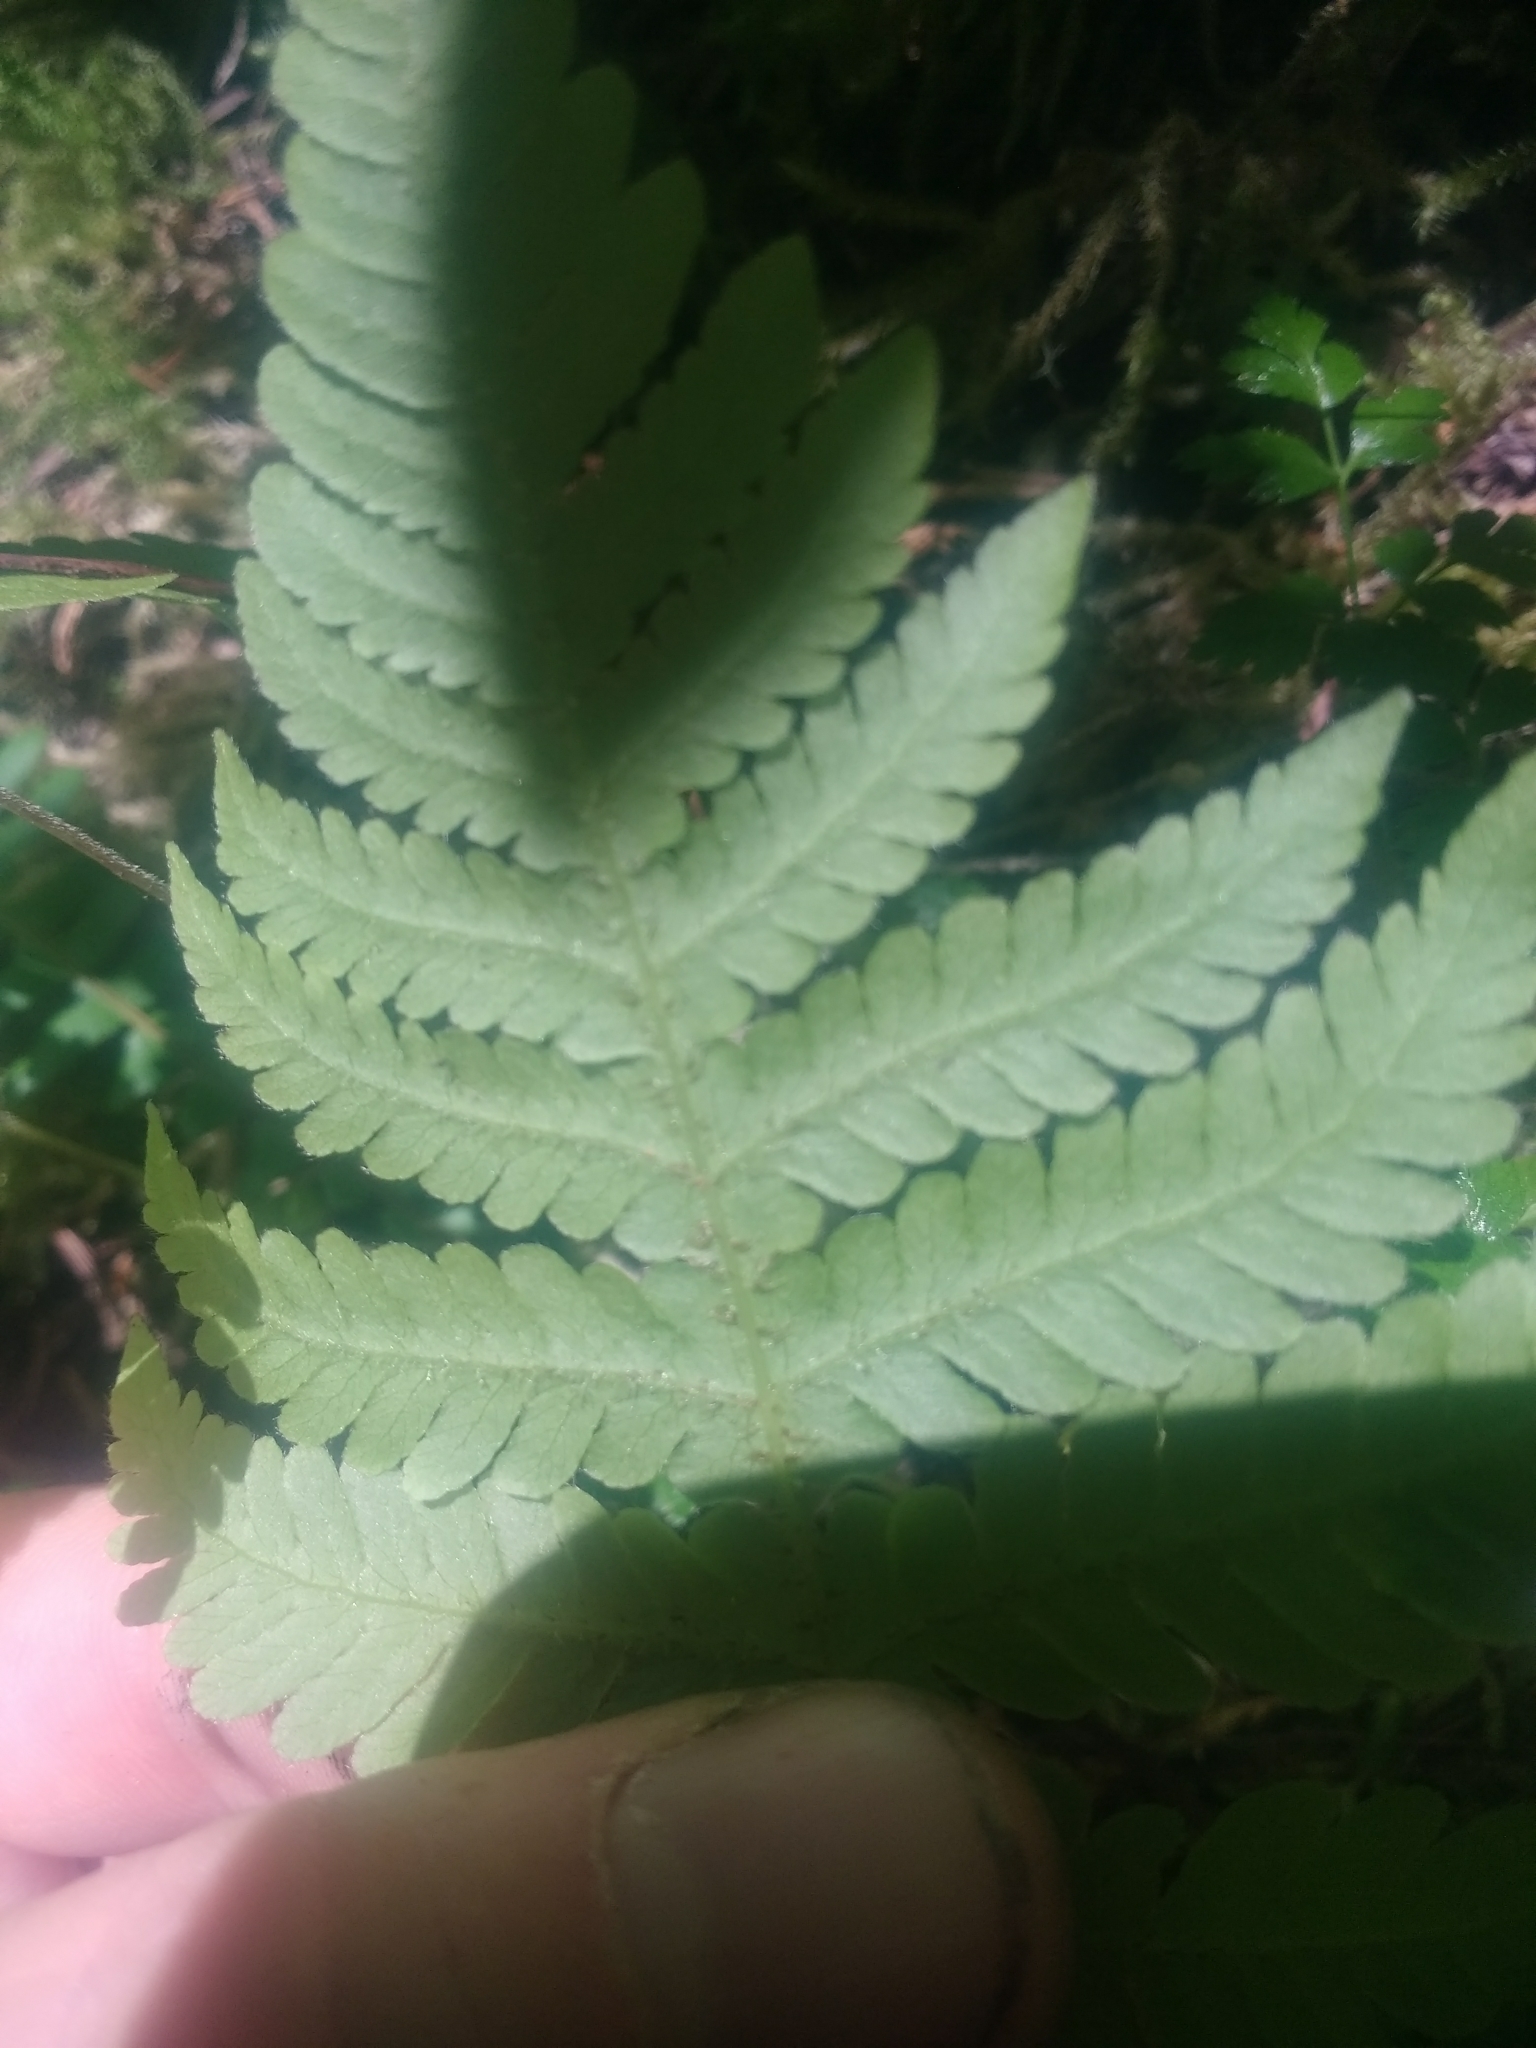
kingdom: Plantae
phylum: Tracheophyta
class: Polypodiopsida
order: Polypodiales
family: Thelypteridaceae
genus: Phegopteris
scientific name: Phegopteris connectilis
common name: Beech fern
